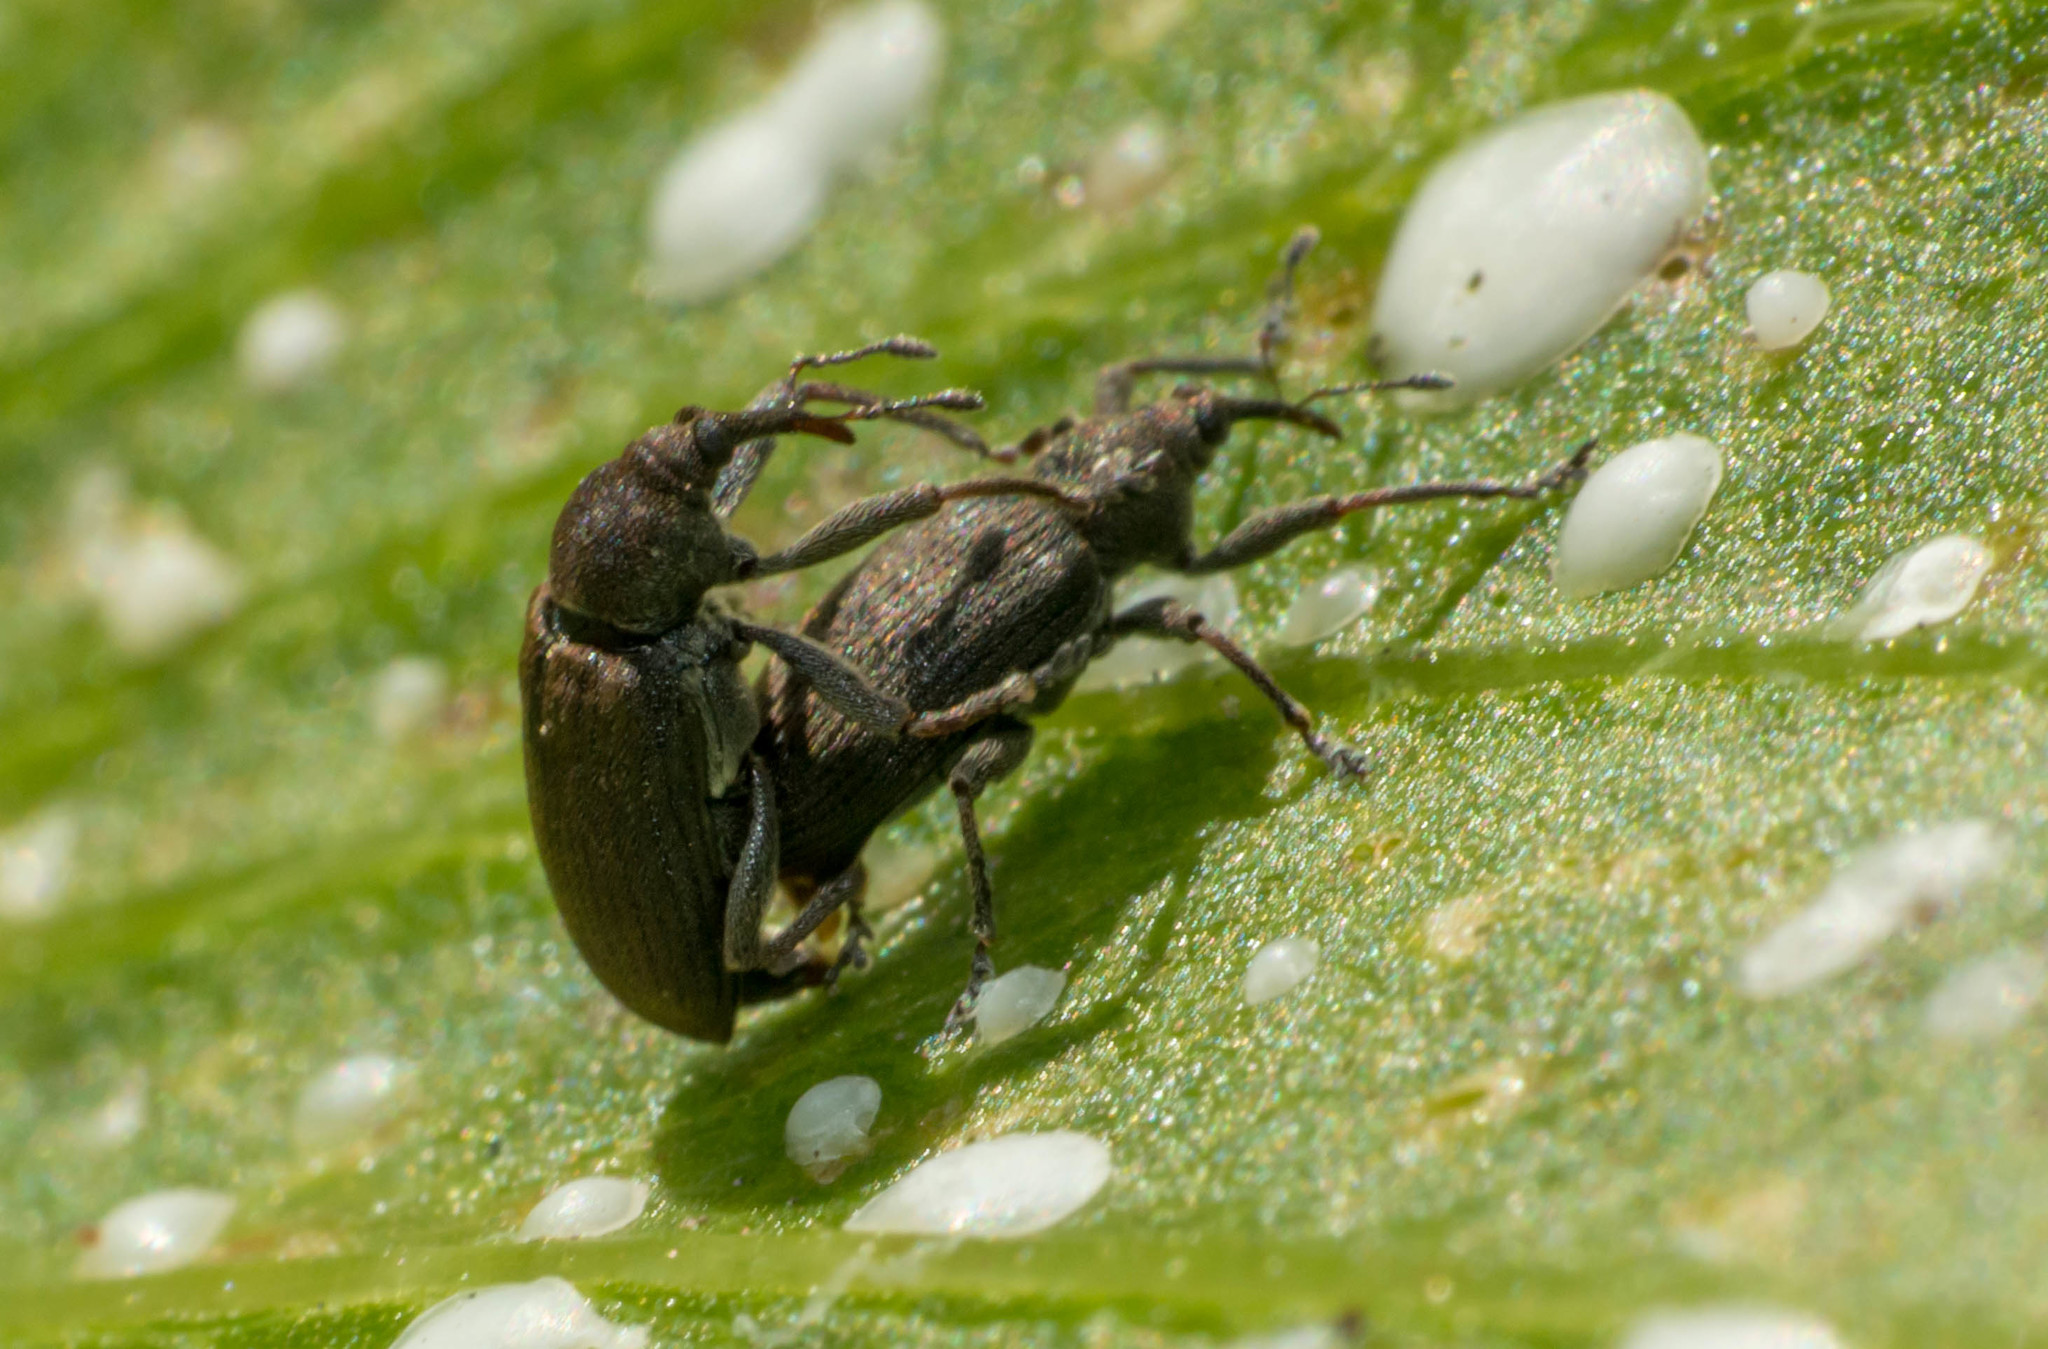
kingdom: Animalia
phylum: Arthropoda
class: Insecta
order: Coleoptera
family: Brachyceridae
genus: Hypselus
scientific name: Hypselus ater
